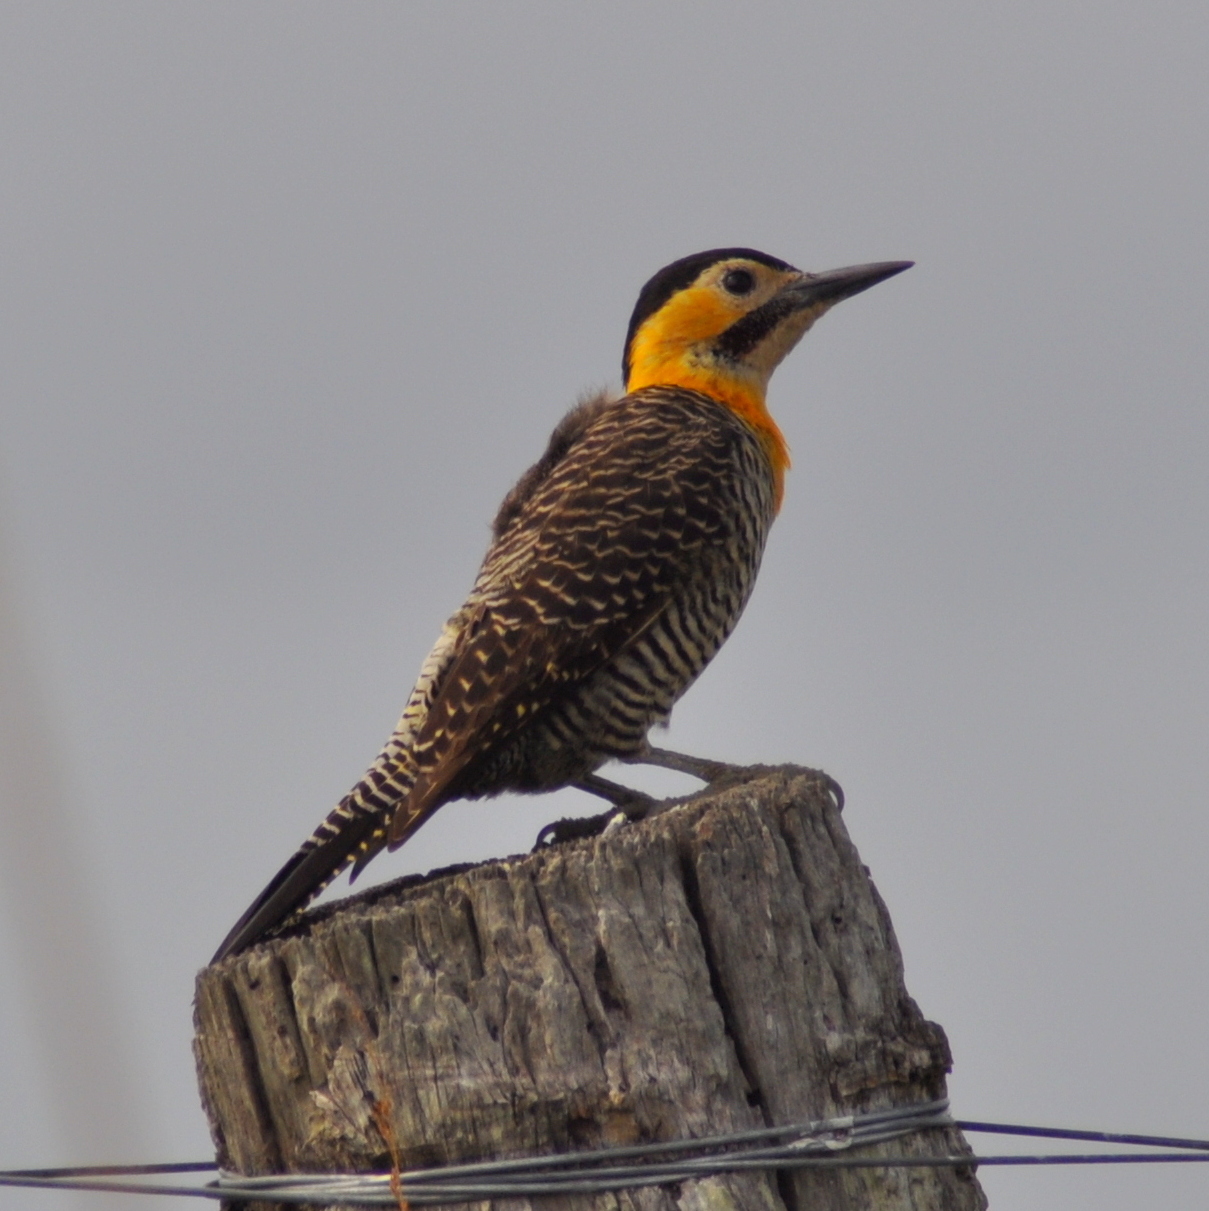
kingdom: Animalia
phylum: Chordata
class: Aves
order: Piciformes
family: Picidae
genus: Colaptes
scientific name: Colaptes campestris
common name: Campo flicker
